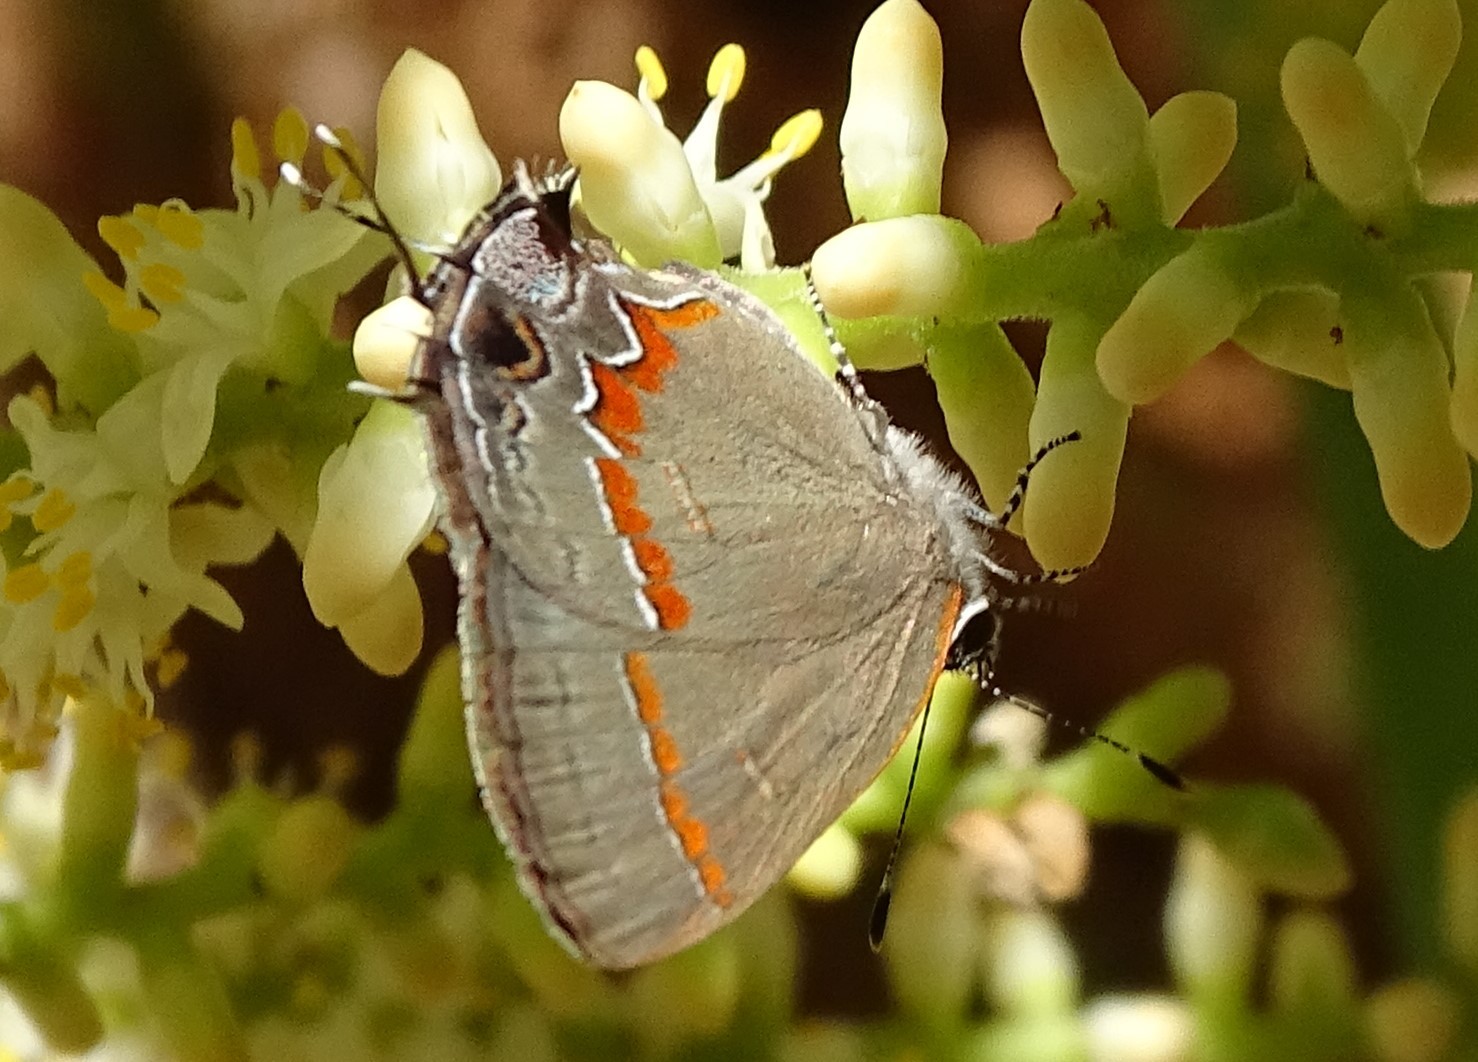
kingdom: Animalia
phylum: Arthropoda
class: Insecta
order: Lepidoptera
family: Lycaenidae
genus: Calycopis
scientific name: Calycopis cecrops
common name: Red-banded hairstreak
